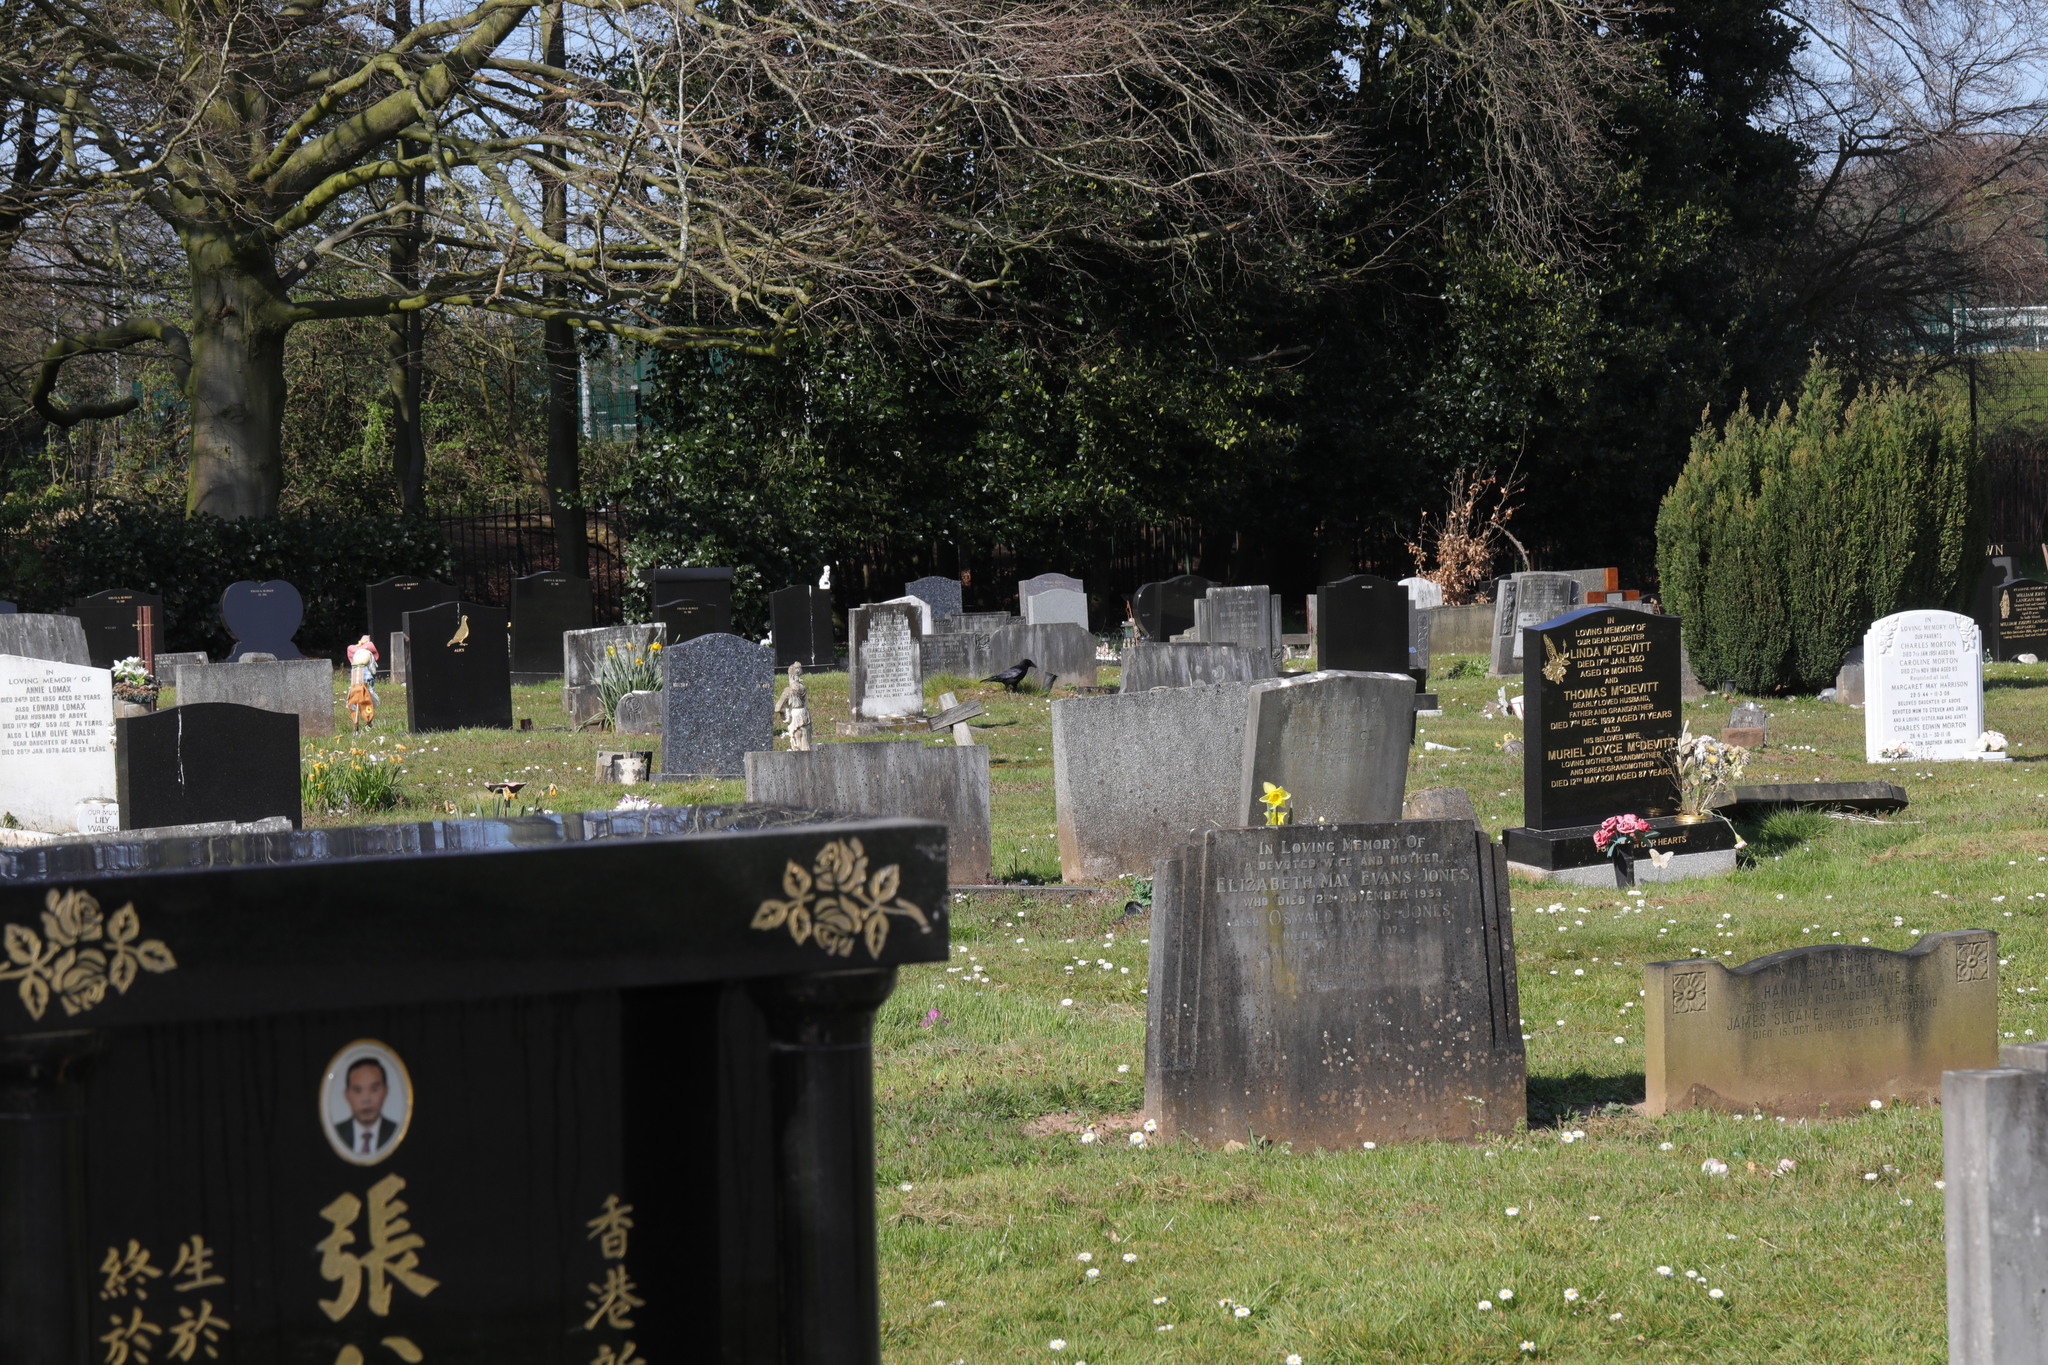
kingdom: Animalia
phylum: Chordata
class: Aves
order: Passeriformes
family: Corvidae
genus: Corvus
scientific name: Corvus corone
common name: Carrion crow
